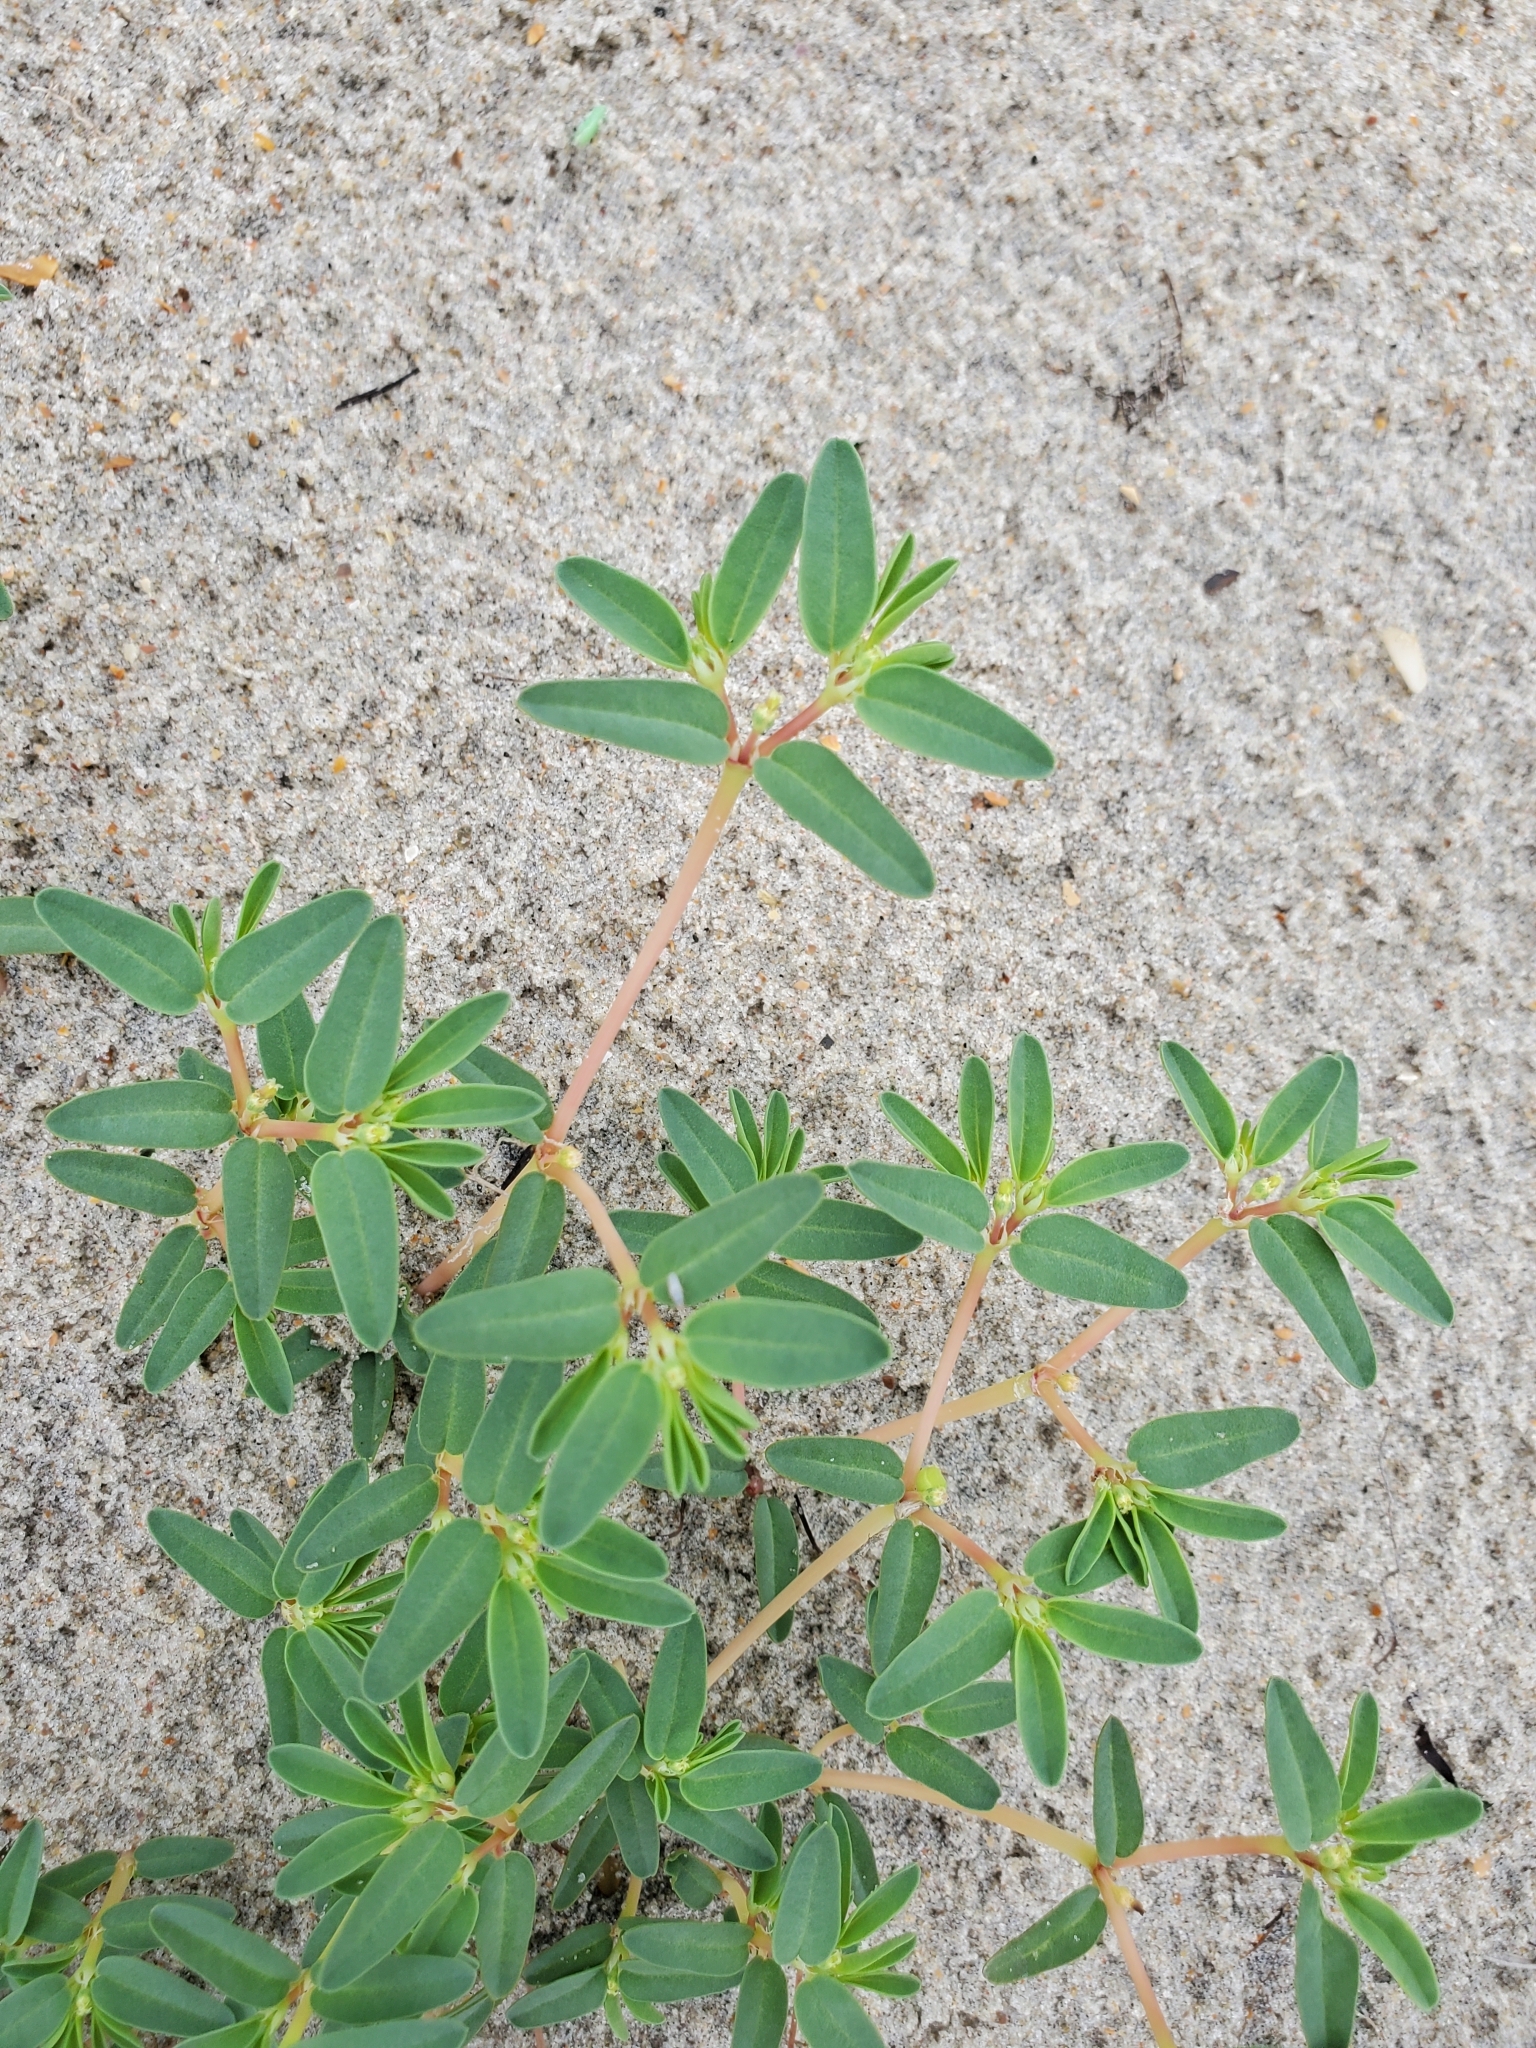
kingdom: Plantae
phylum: Tracheophyta
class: Magnoliopsida
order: Malpighiales
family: Euphorbiaceae
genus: Euphorbia
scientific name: Euphorbia polygonifolia
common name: Knotweed spurge
